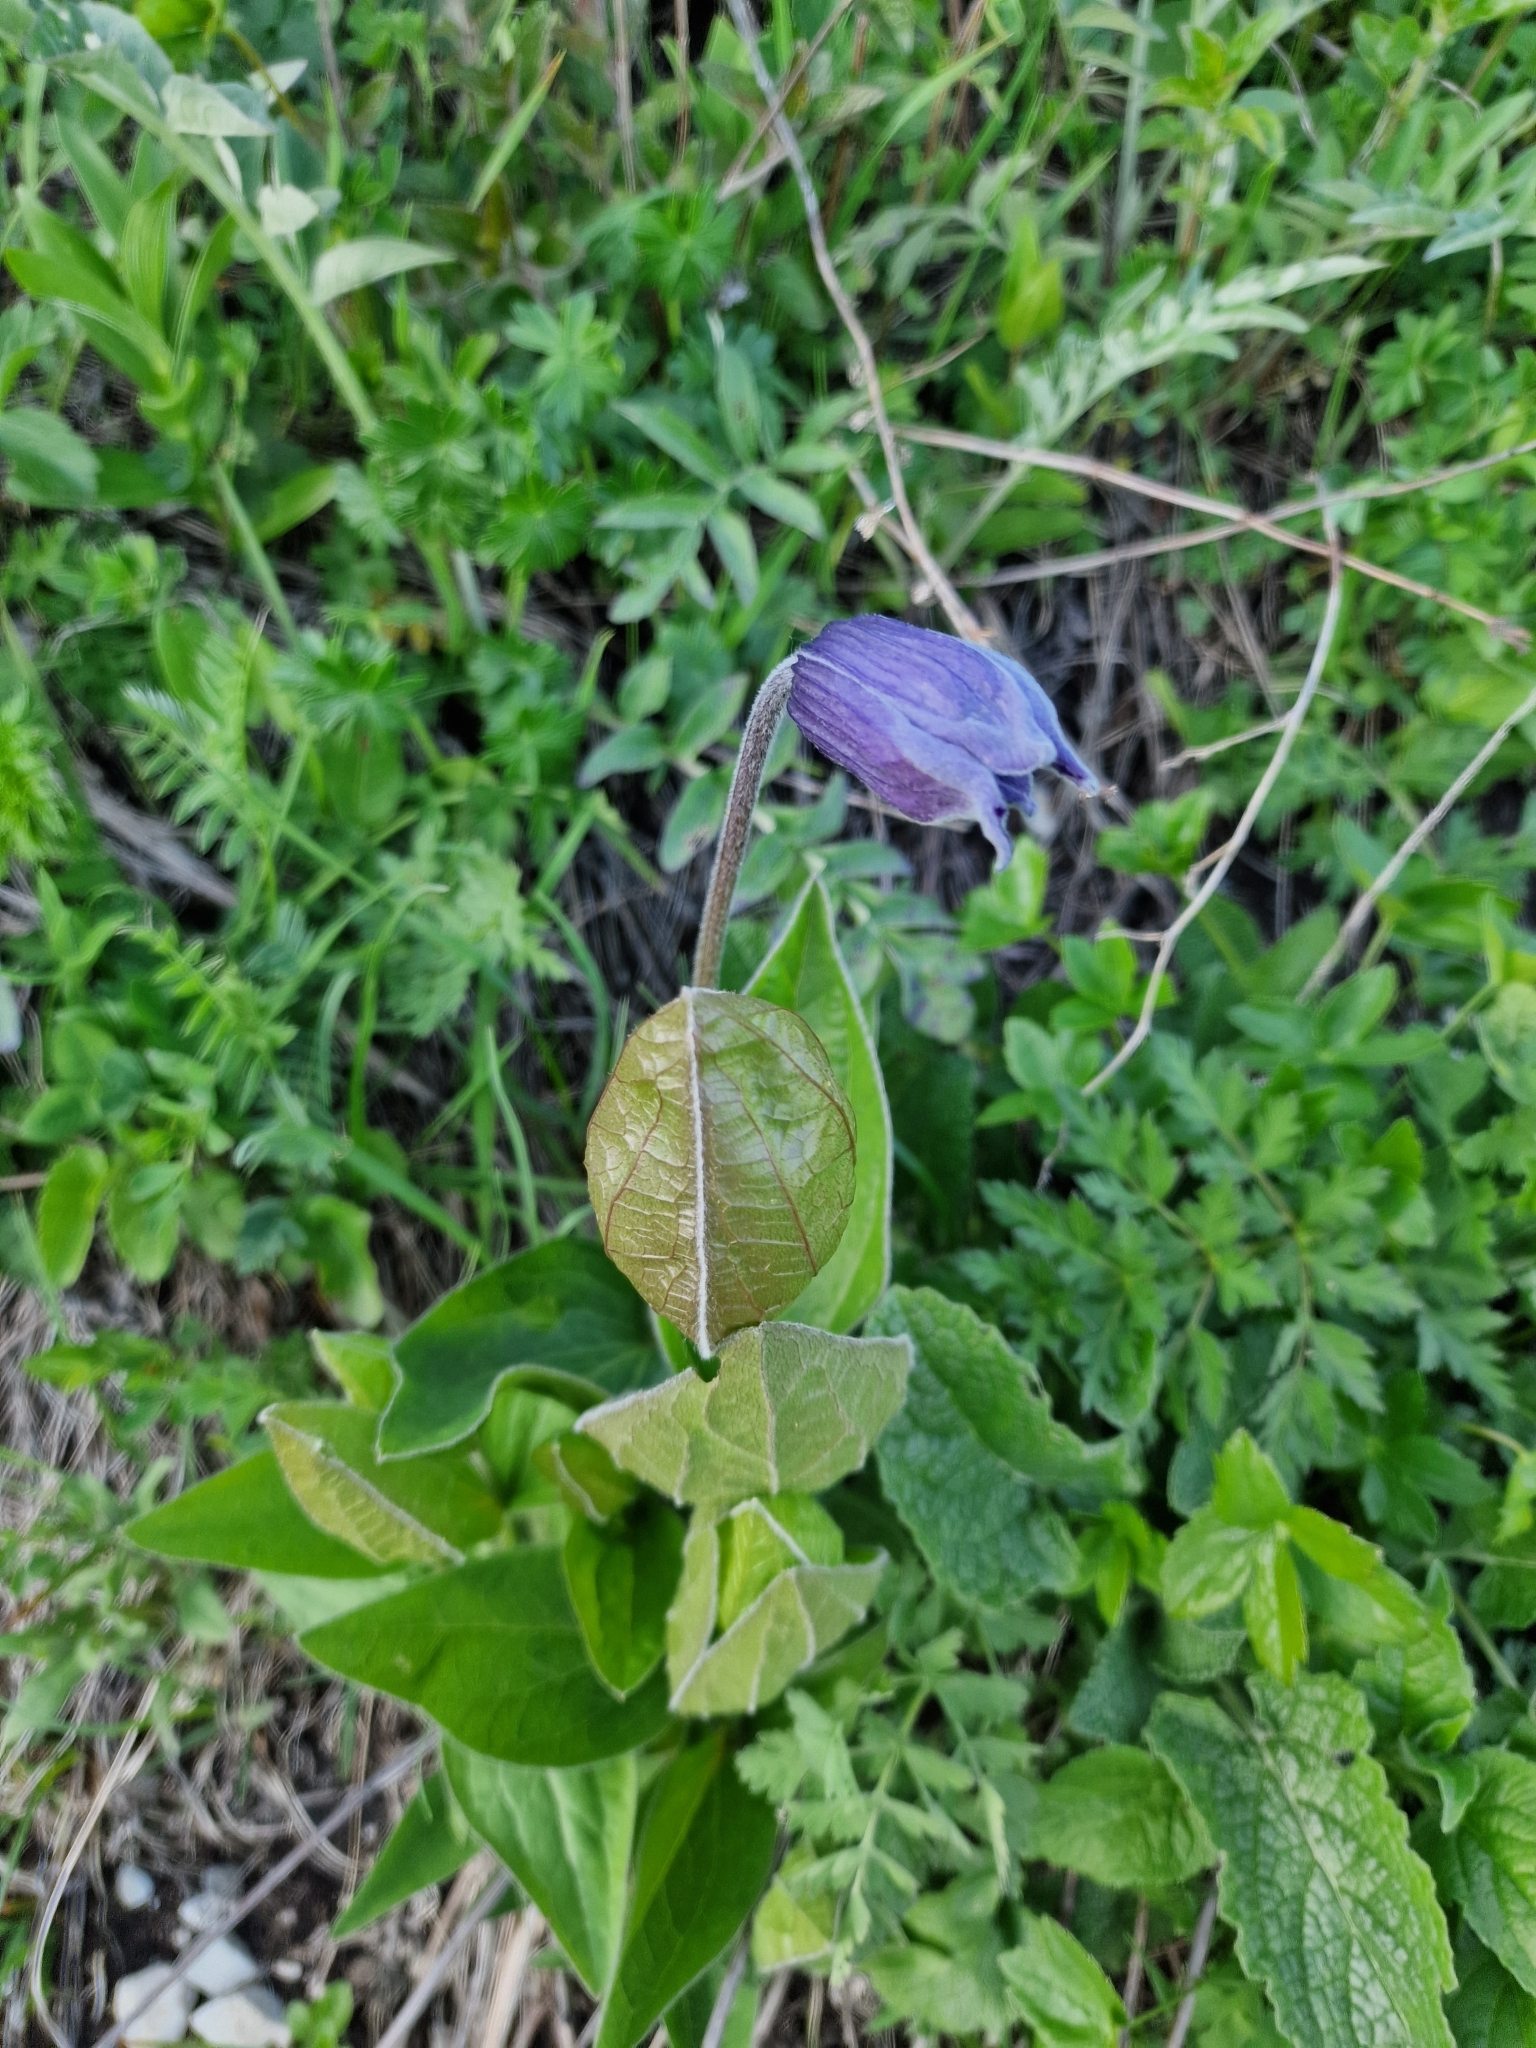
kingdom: Plantae
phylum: Tracheophyta
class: Magnoliopsida
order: Ranunculales
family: Ranunculaceae
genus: Clematis
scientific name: Clematis integrifolia
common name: Solitary clematis
